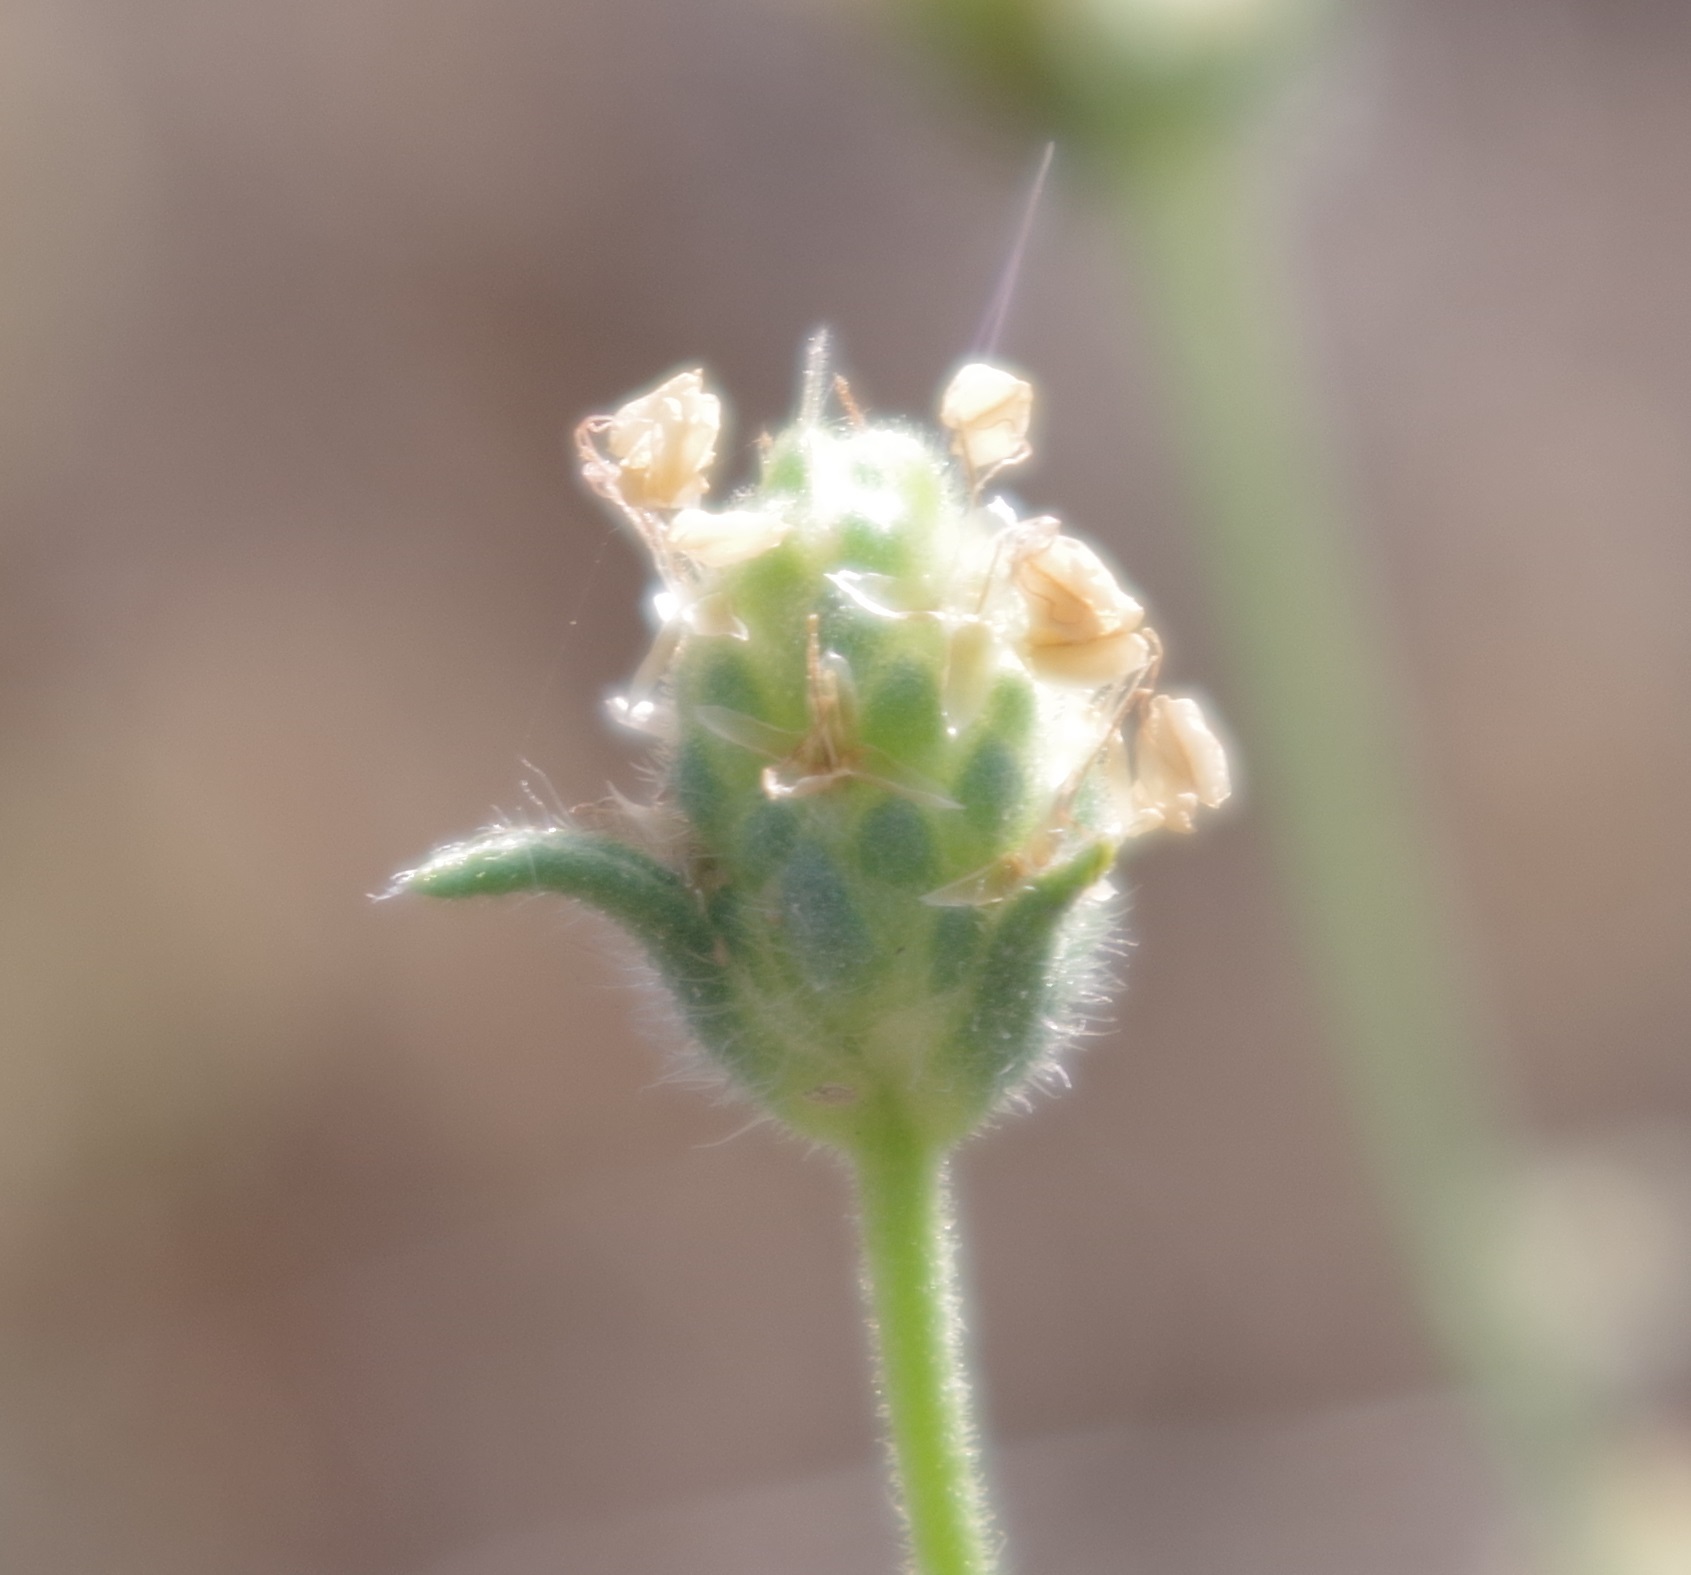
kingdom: Plantae
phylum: Tracheophyta
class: Magnoliopsida
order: Lamiales
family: Plantaginaceae
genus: Plantago
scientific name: Plantago arenaria
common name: Branched plantain
